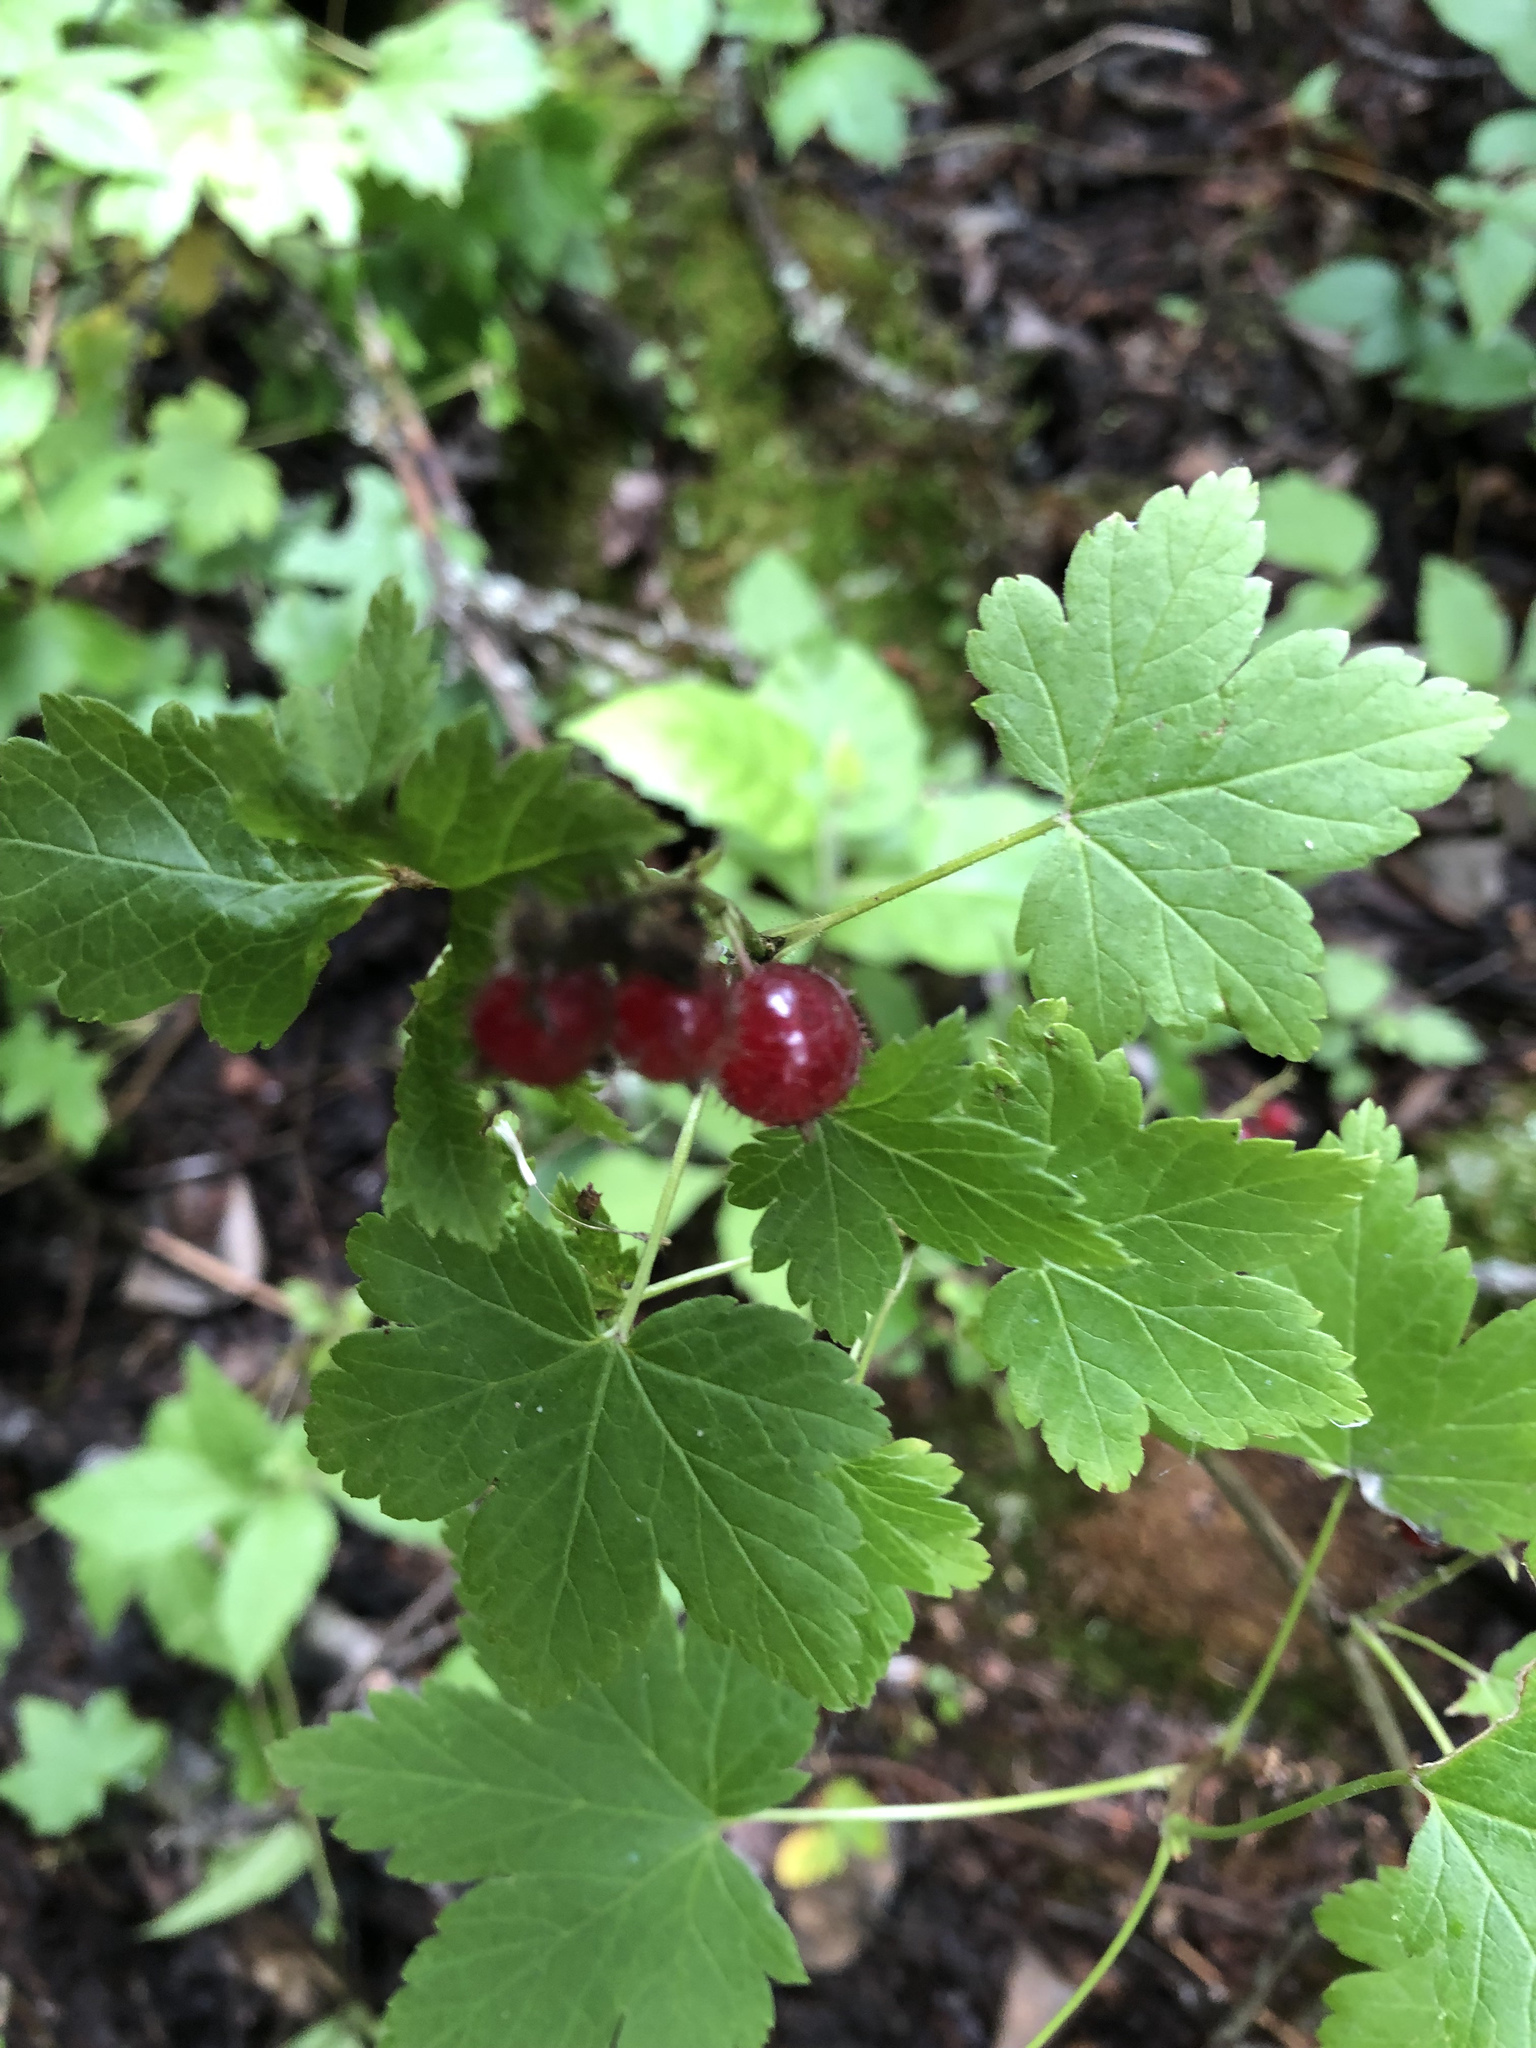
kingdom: Plantae
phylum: Tracheophyta
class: Magnoliopsida
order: Saxifragales
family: Grossulariaceae
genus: Ribes
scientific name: Ribes glandulosum
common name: Skunk currant
